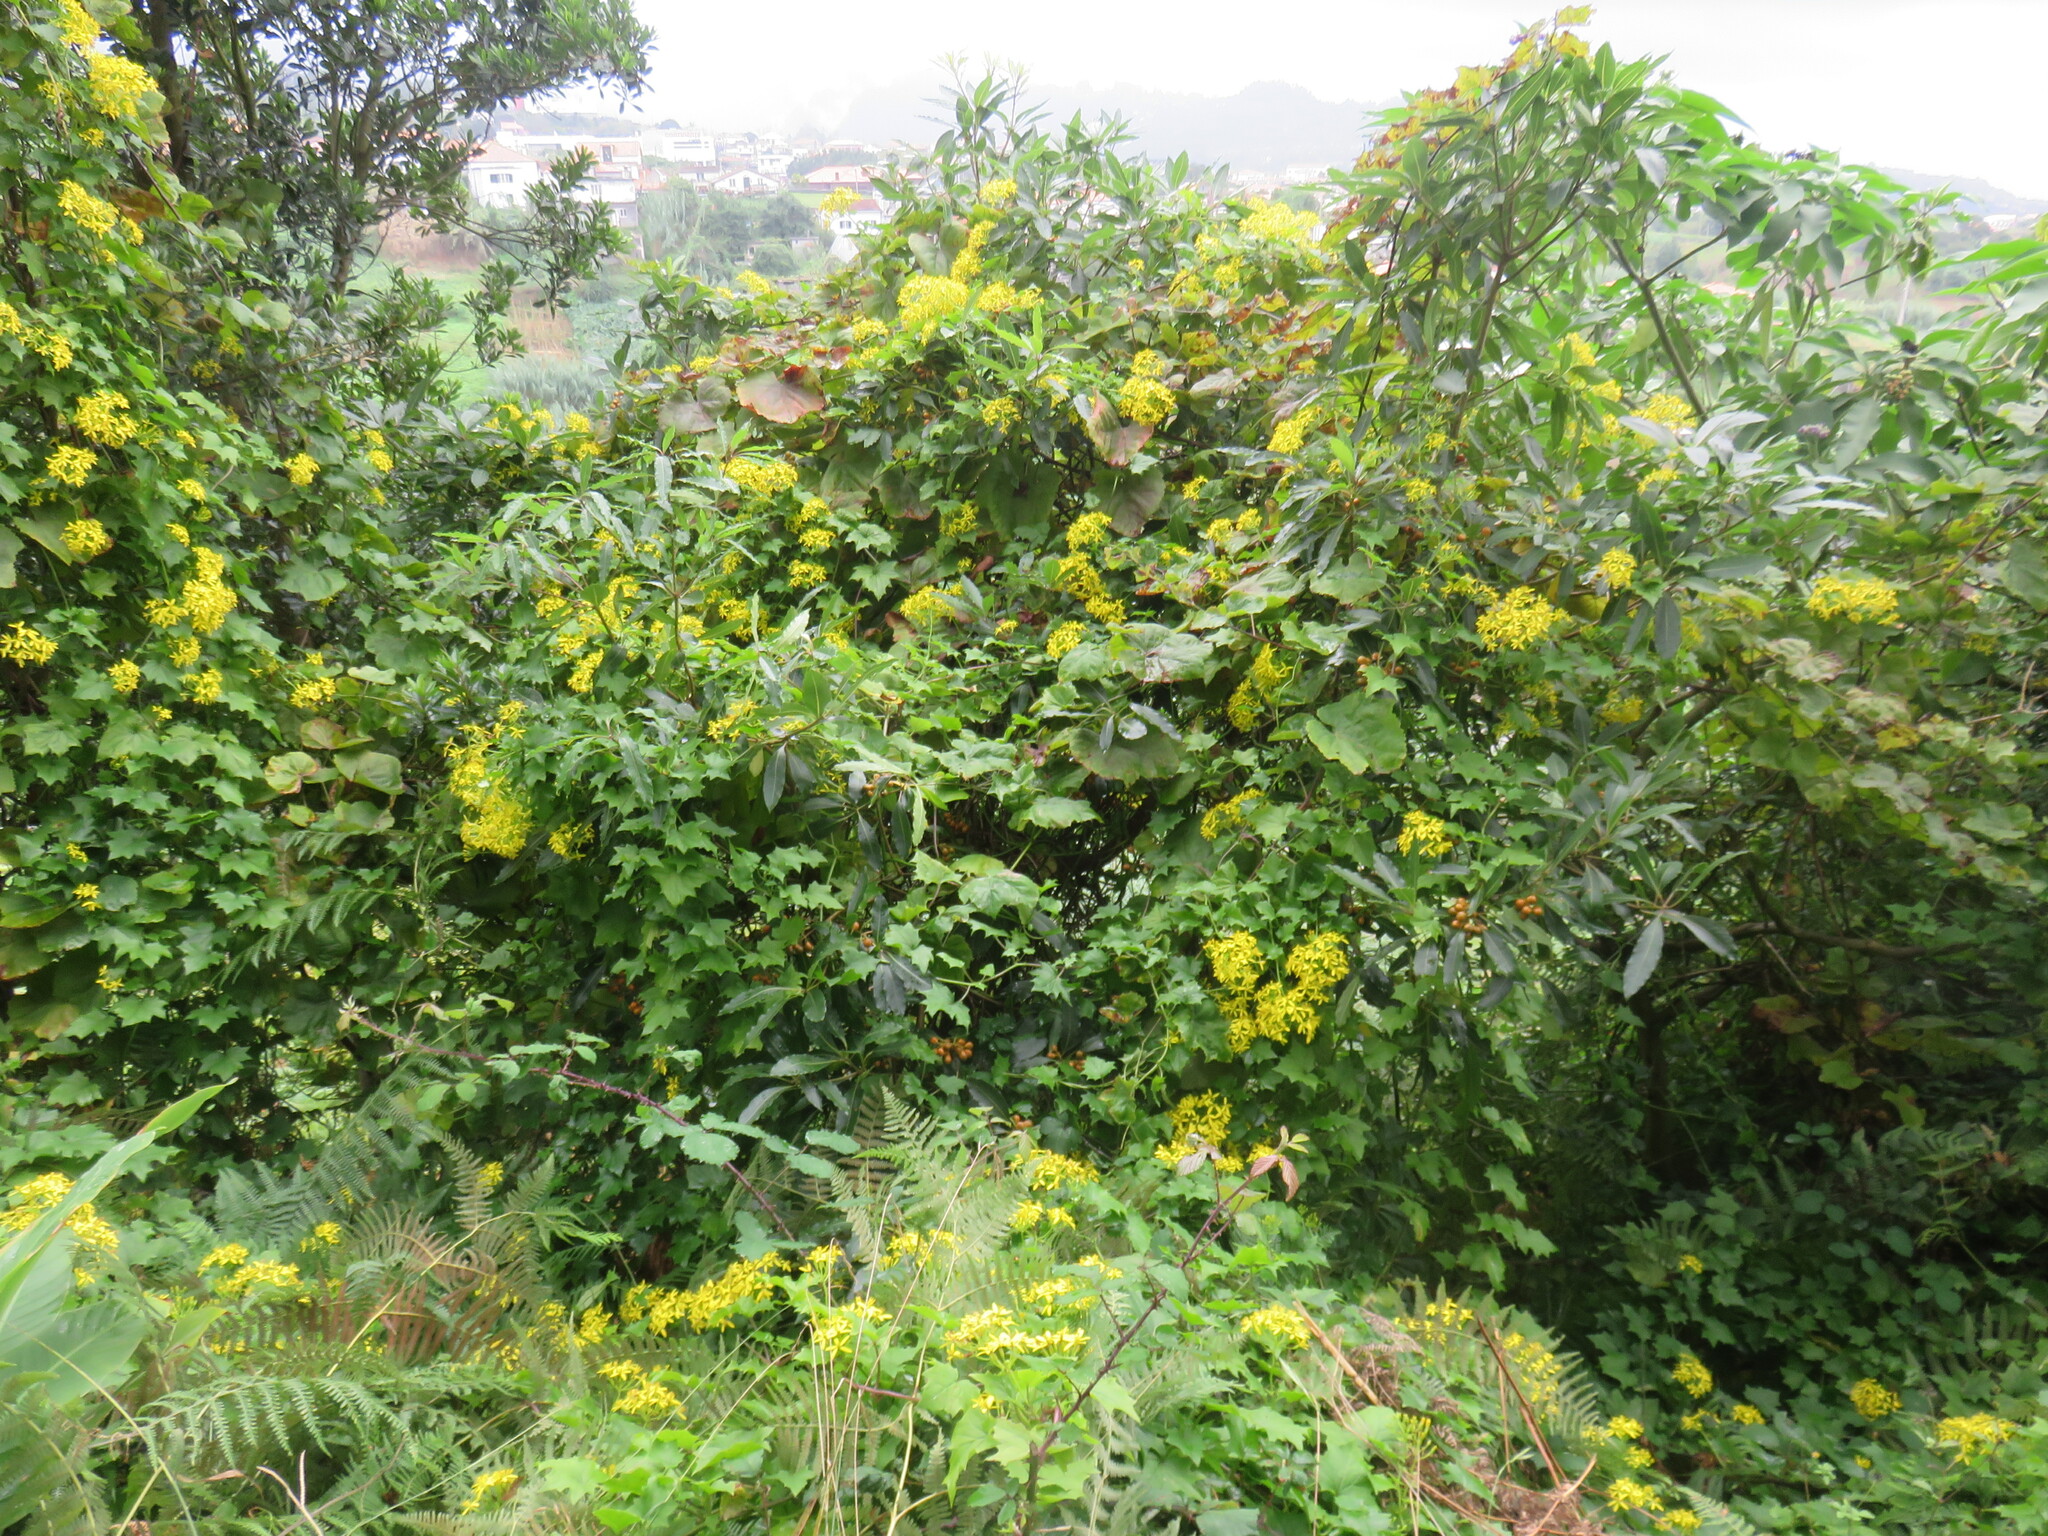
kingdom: Plantae
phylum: Tracheophyta
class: Magnoliopsida
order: Asterales
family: Asteraceae
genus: Delairea
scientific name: Delairea odorata
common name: Cape-ivy
